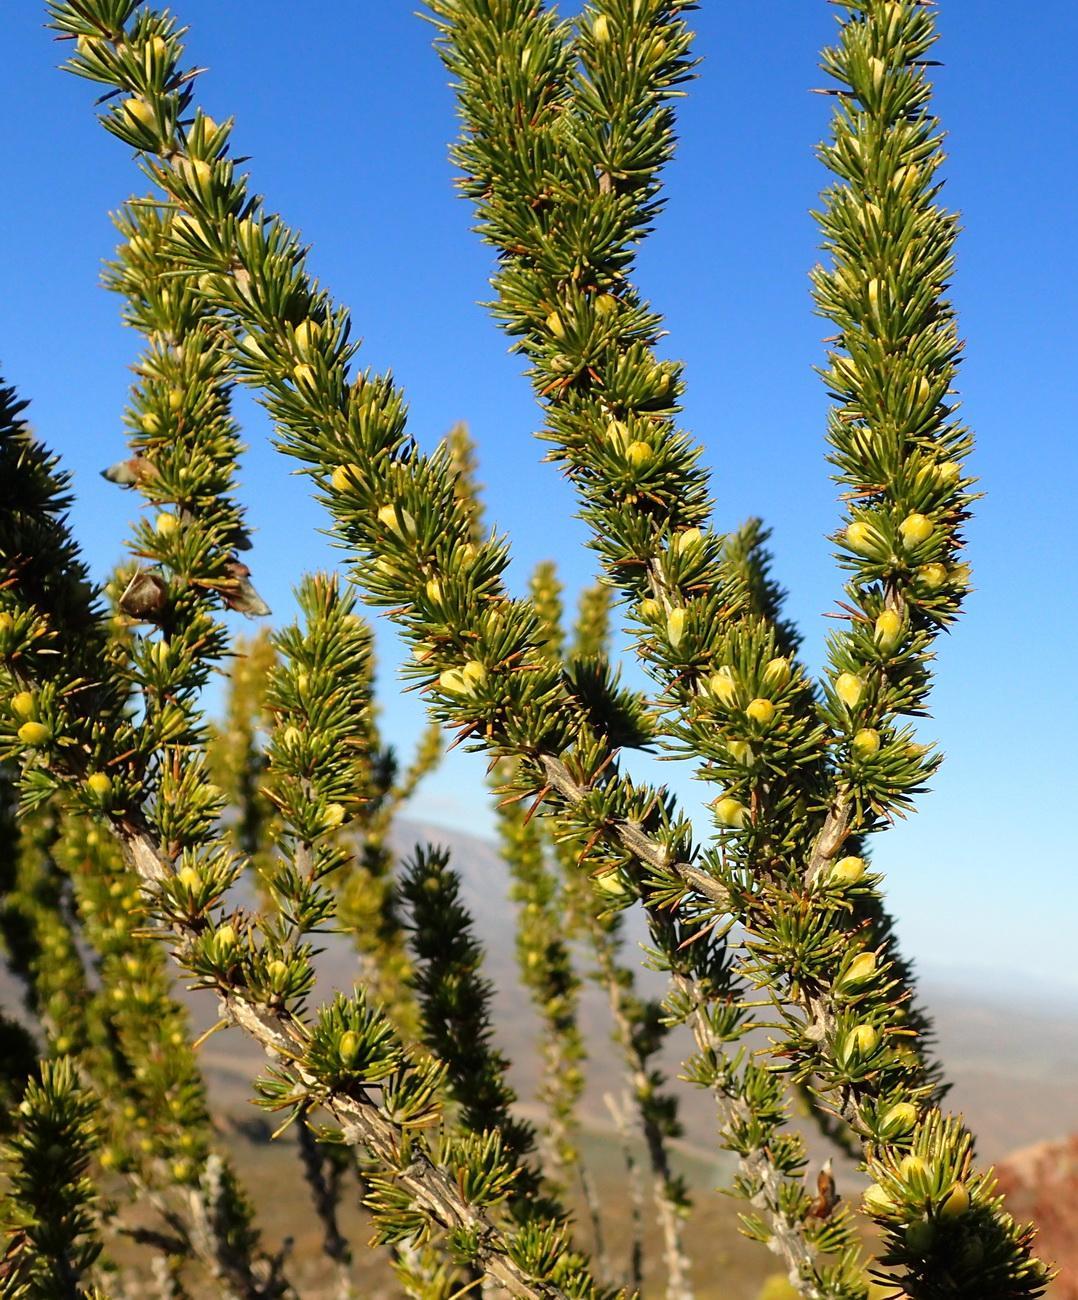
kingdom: Plantae
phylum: Tracheophyta
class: Magnoliopsida
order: Fabales
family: Fabaceae
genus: Aspalathus
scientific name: Aspalathus sceptrumaureum
